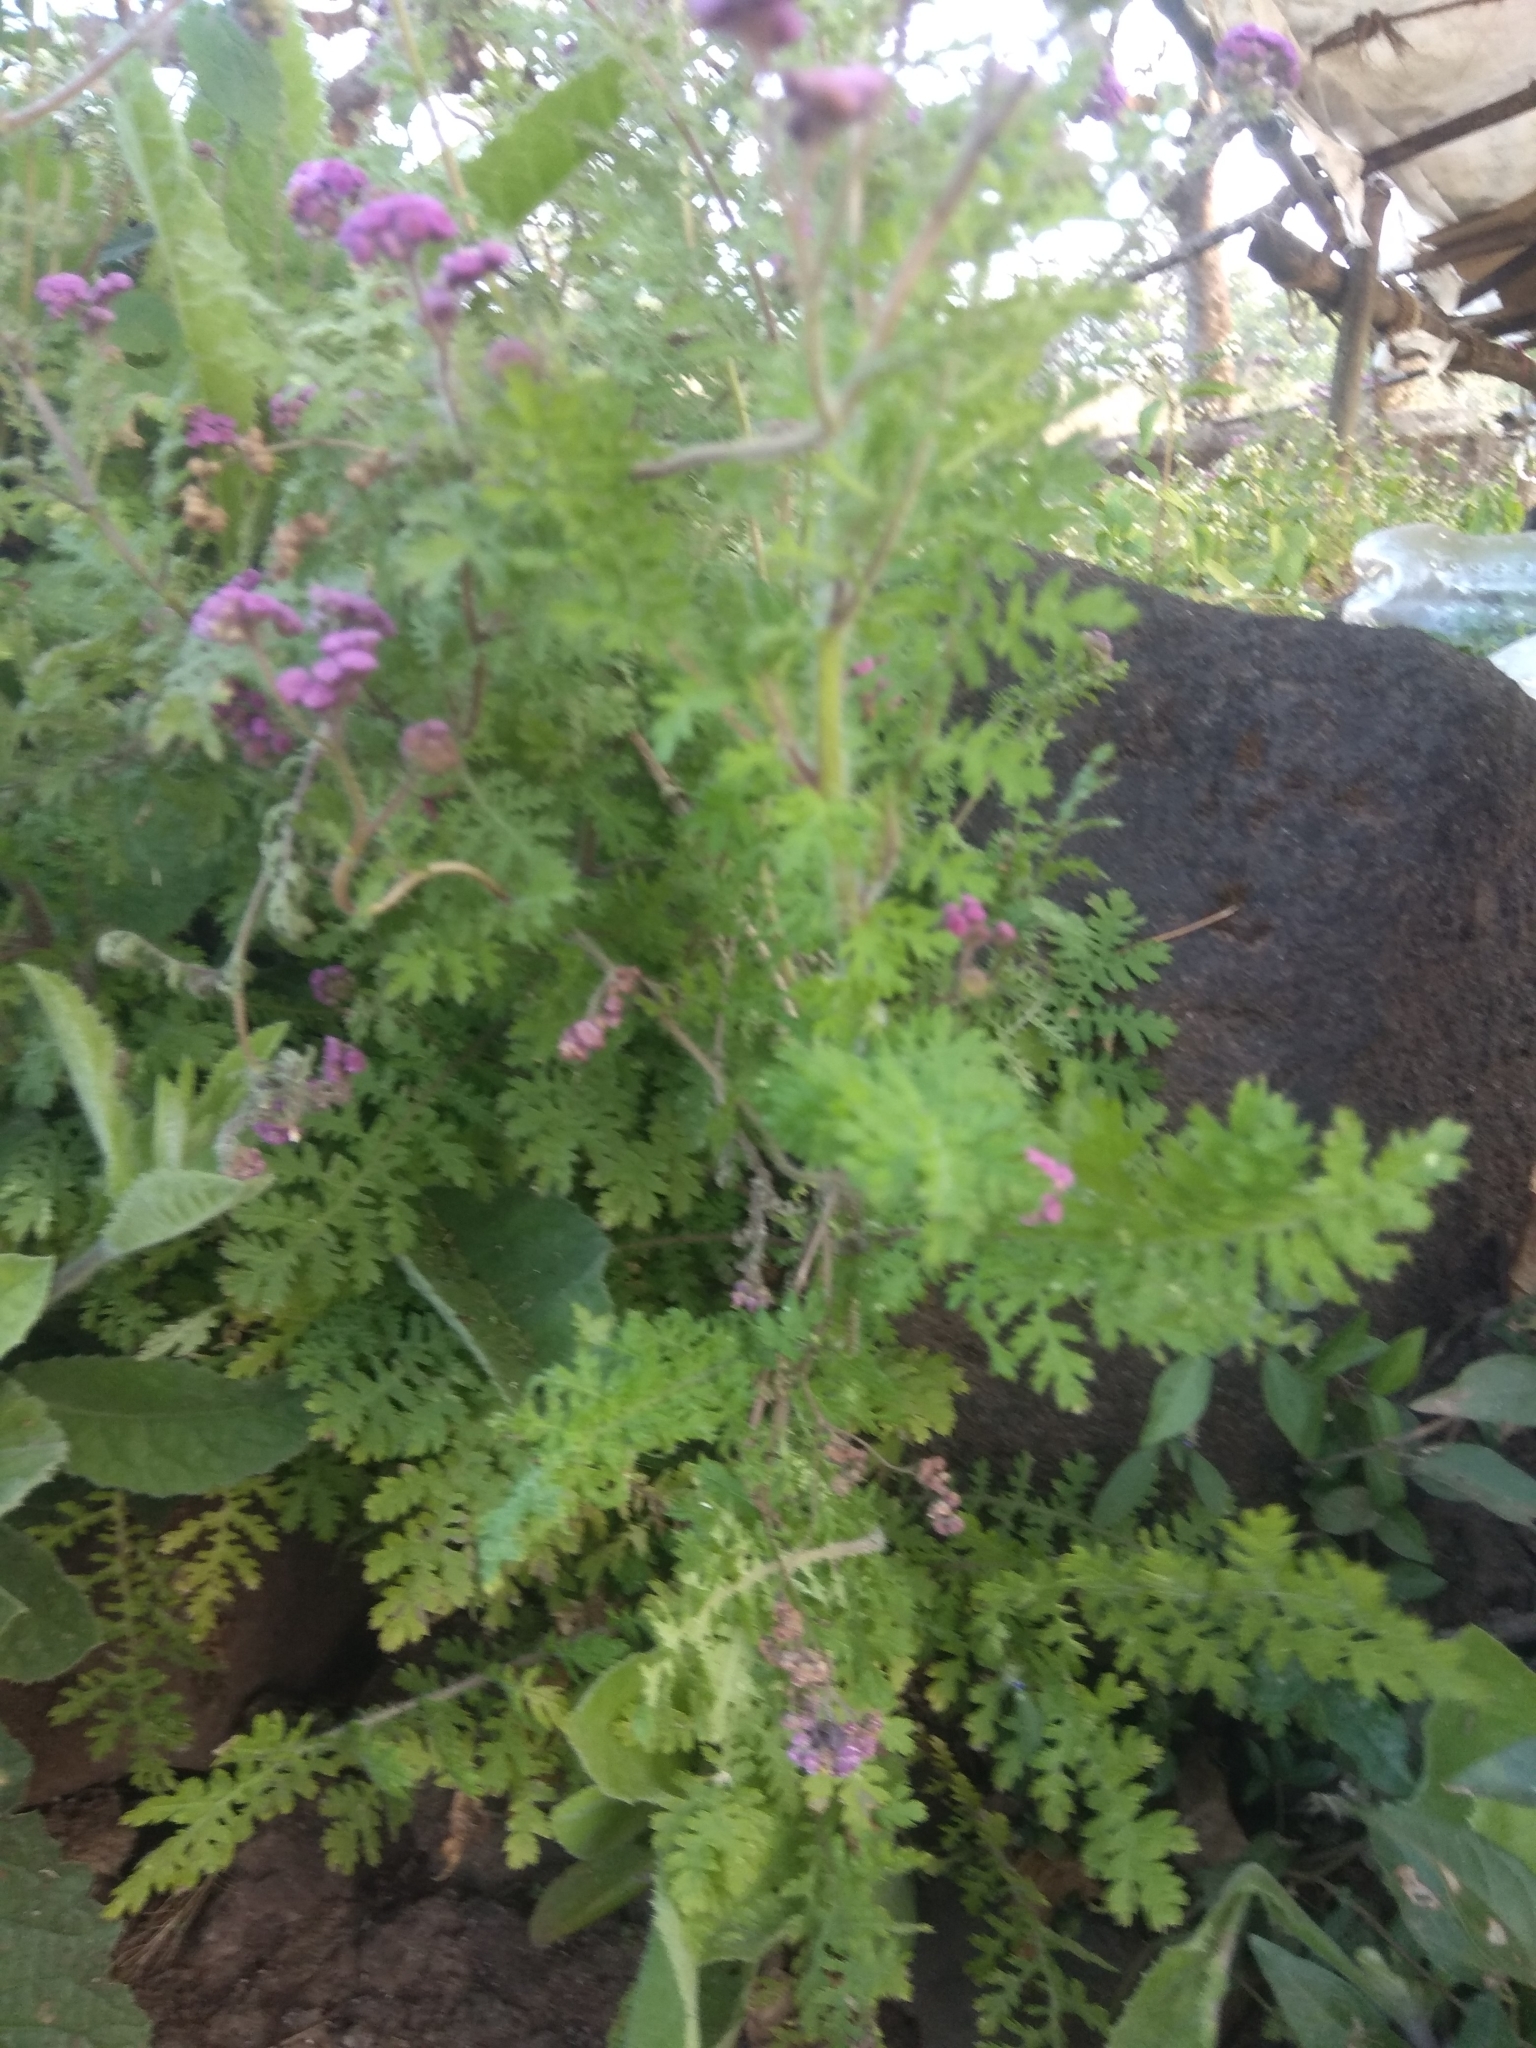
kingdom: Plantae
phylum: Tracheophyta
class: Magnoliopsida
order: Asterales
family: Asteraceae
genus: Cyathocline
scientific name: Cyathocline purpurea
